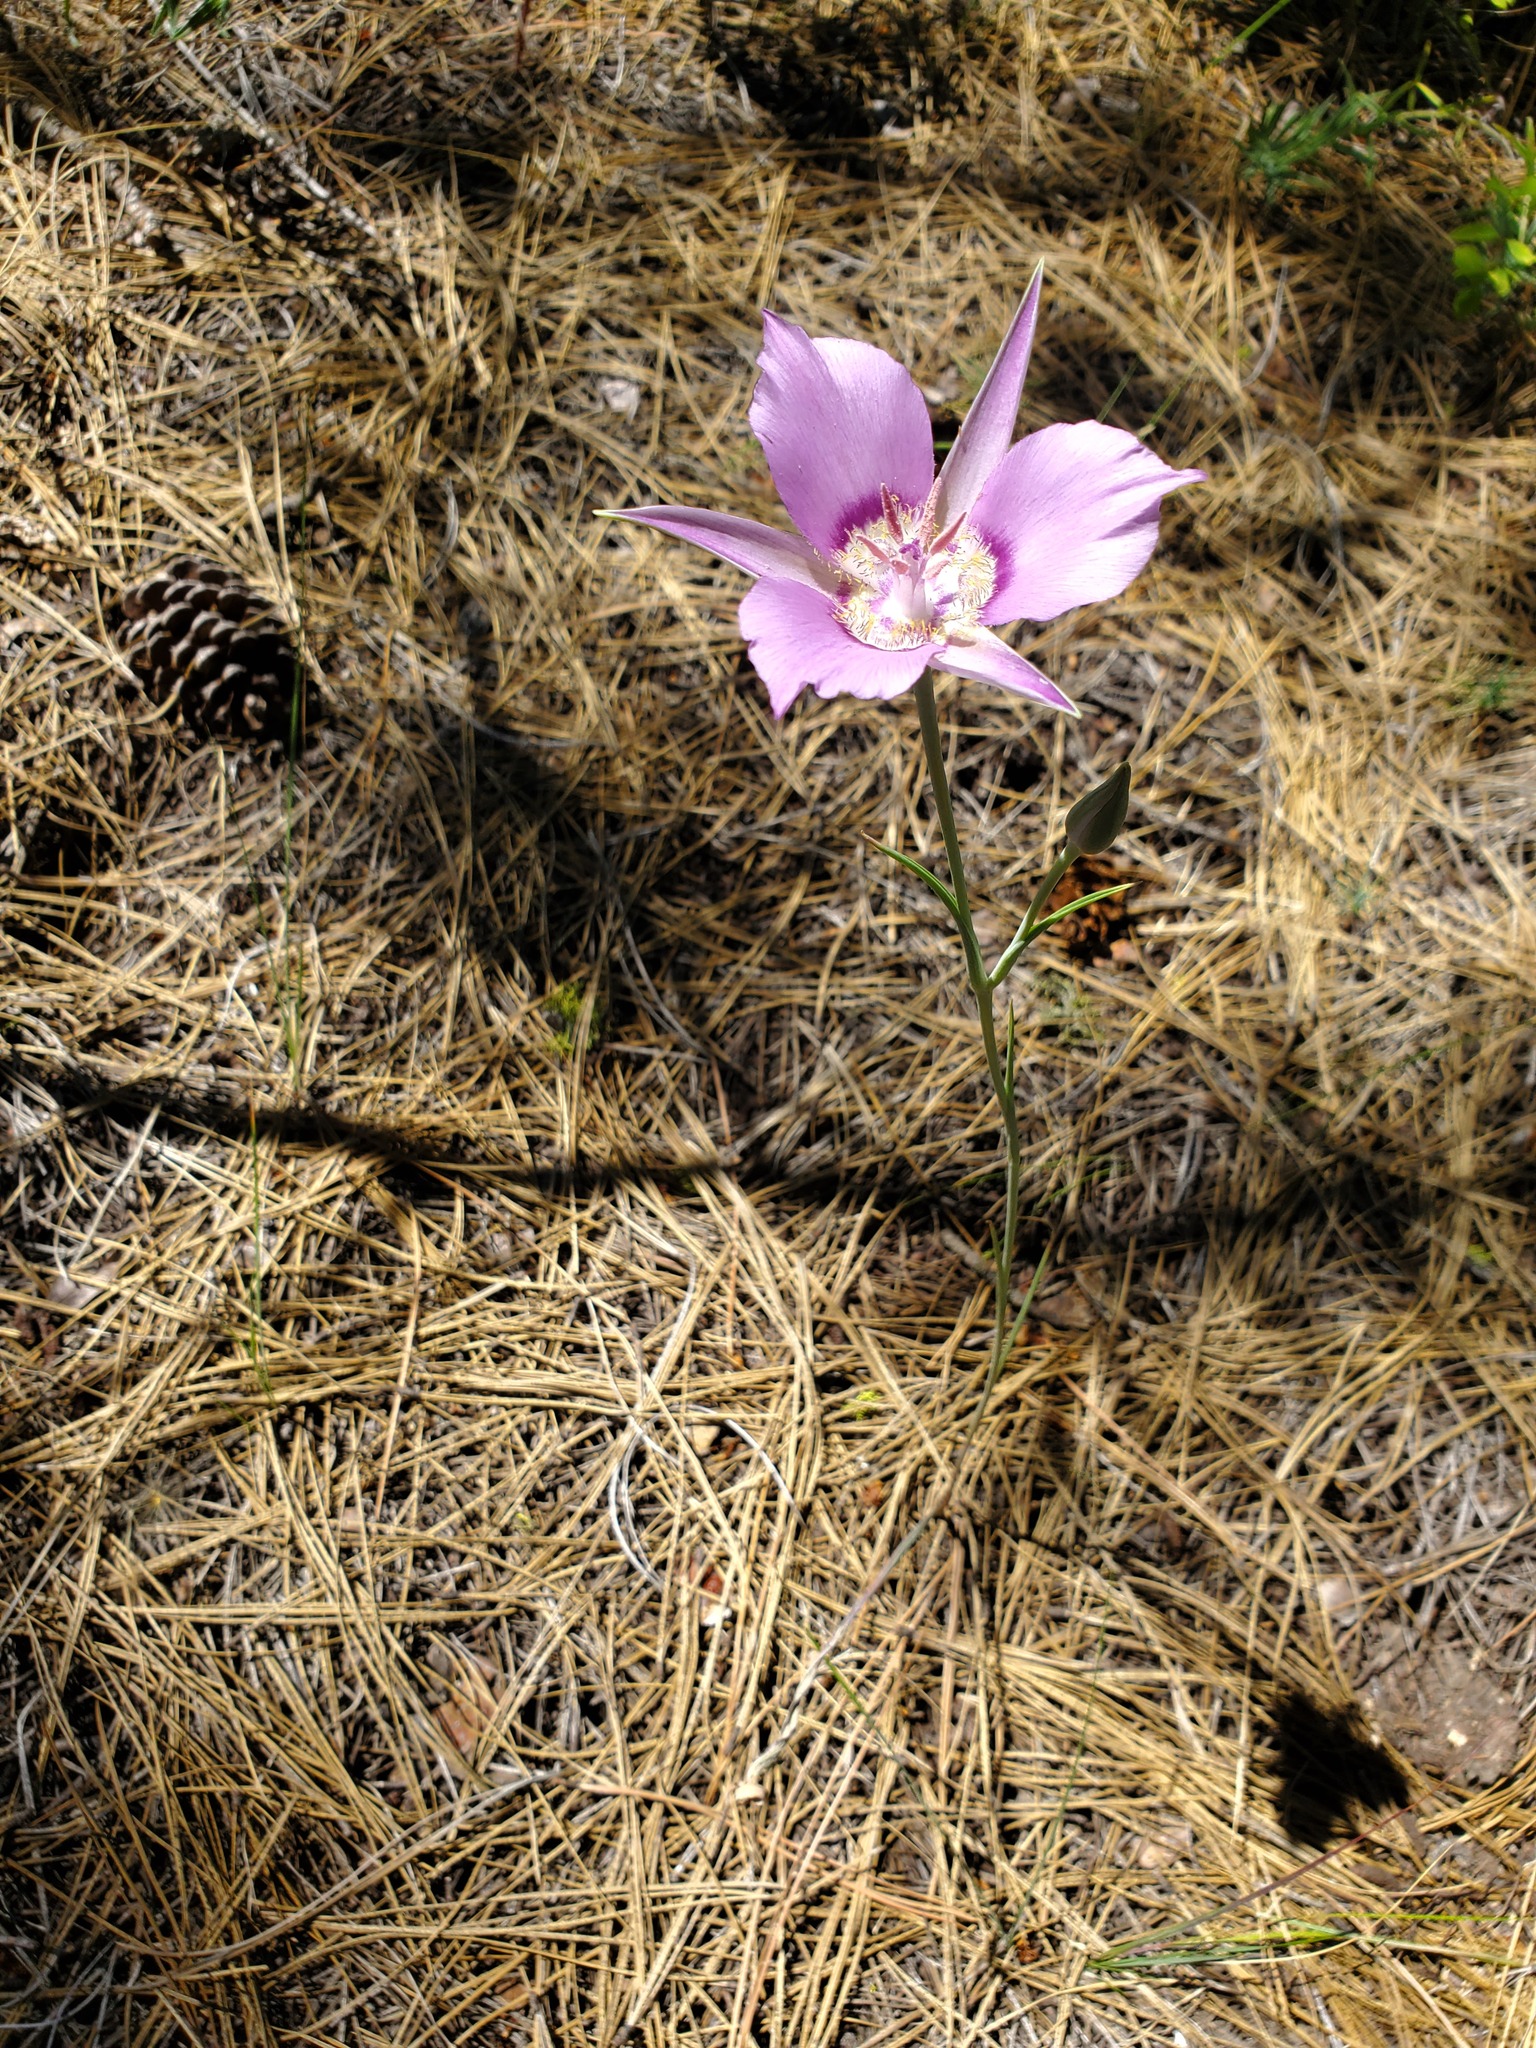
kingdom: Plantae
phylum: Tracheophyta
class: Liliopsida
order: Liliales
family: Liliaceae
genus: Calochortus
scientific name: Calochortus macrocarpus
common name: Green-band mariposa lily
